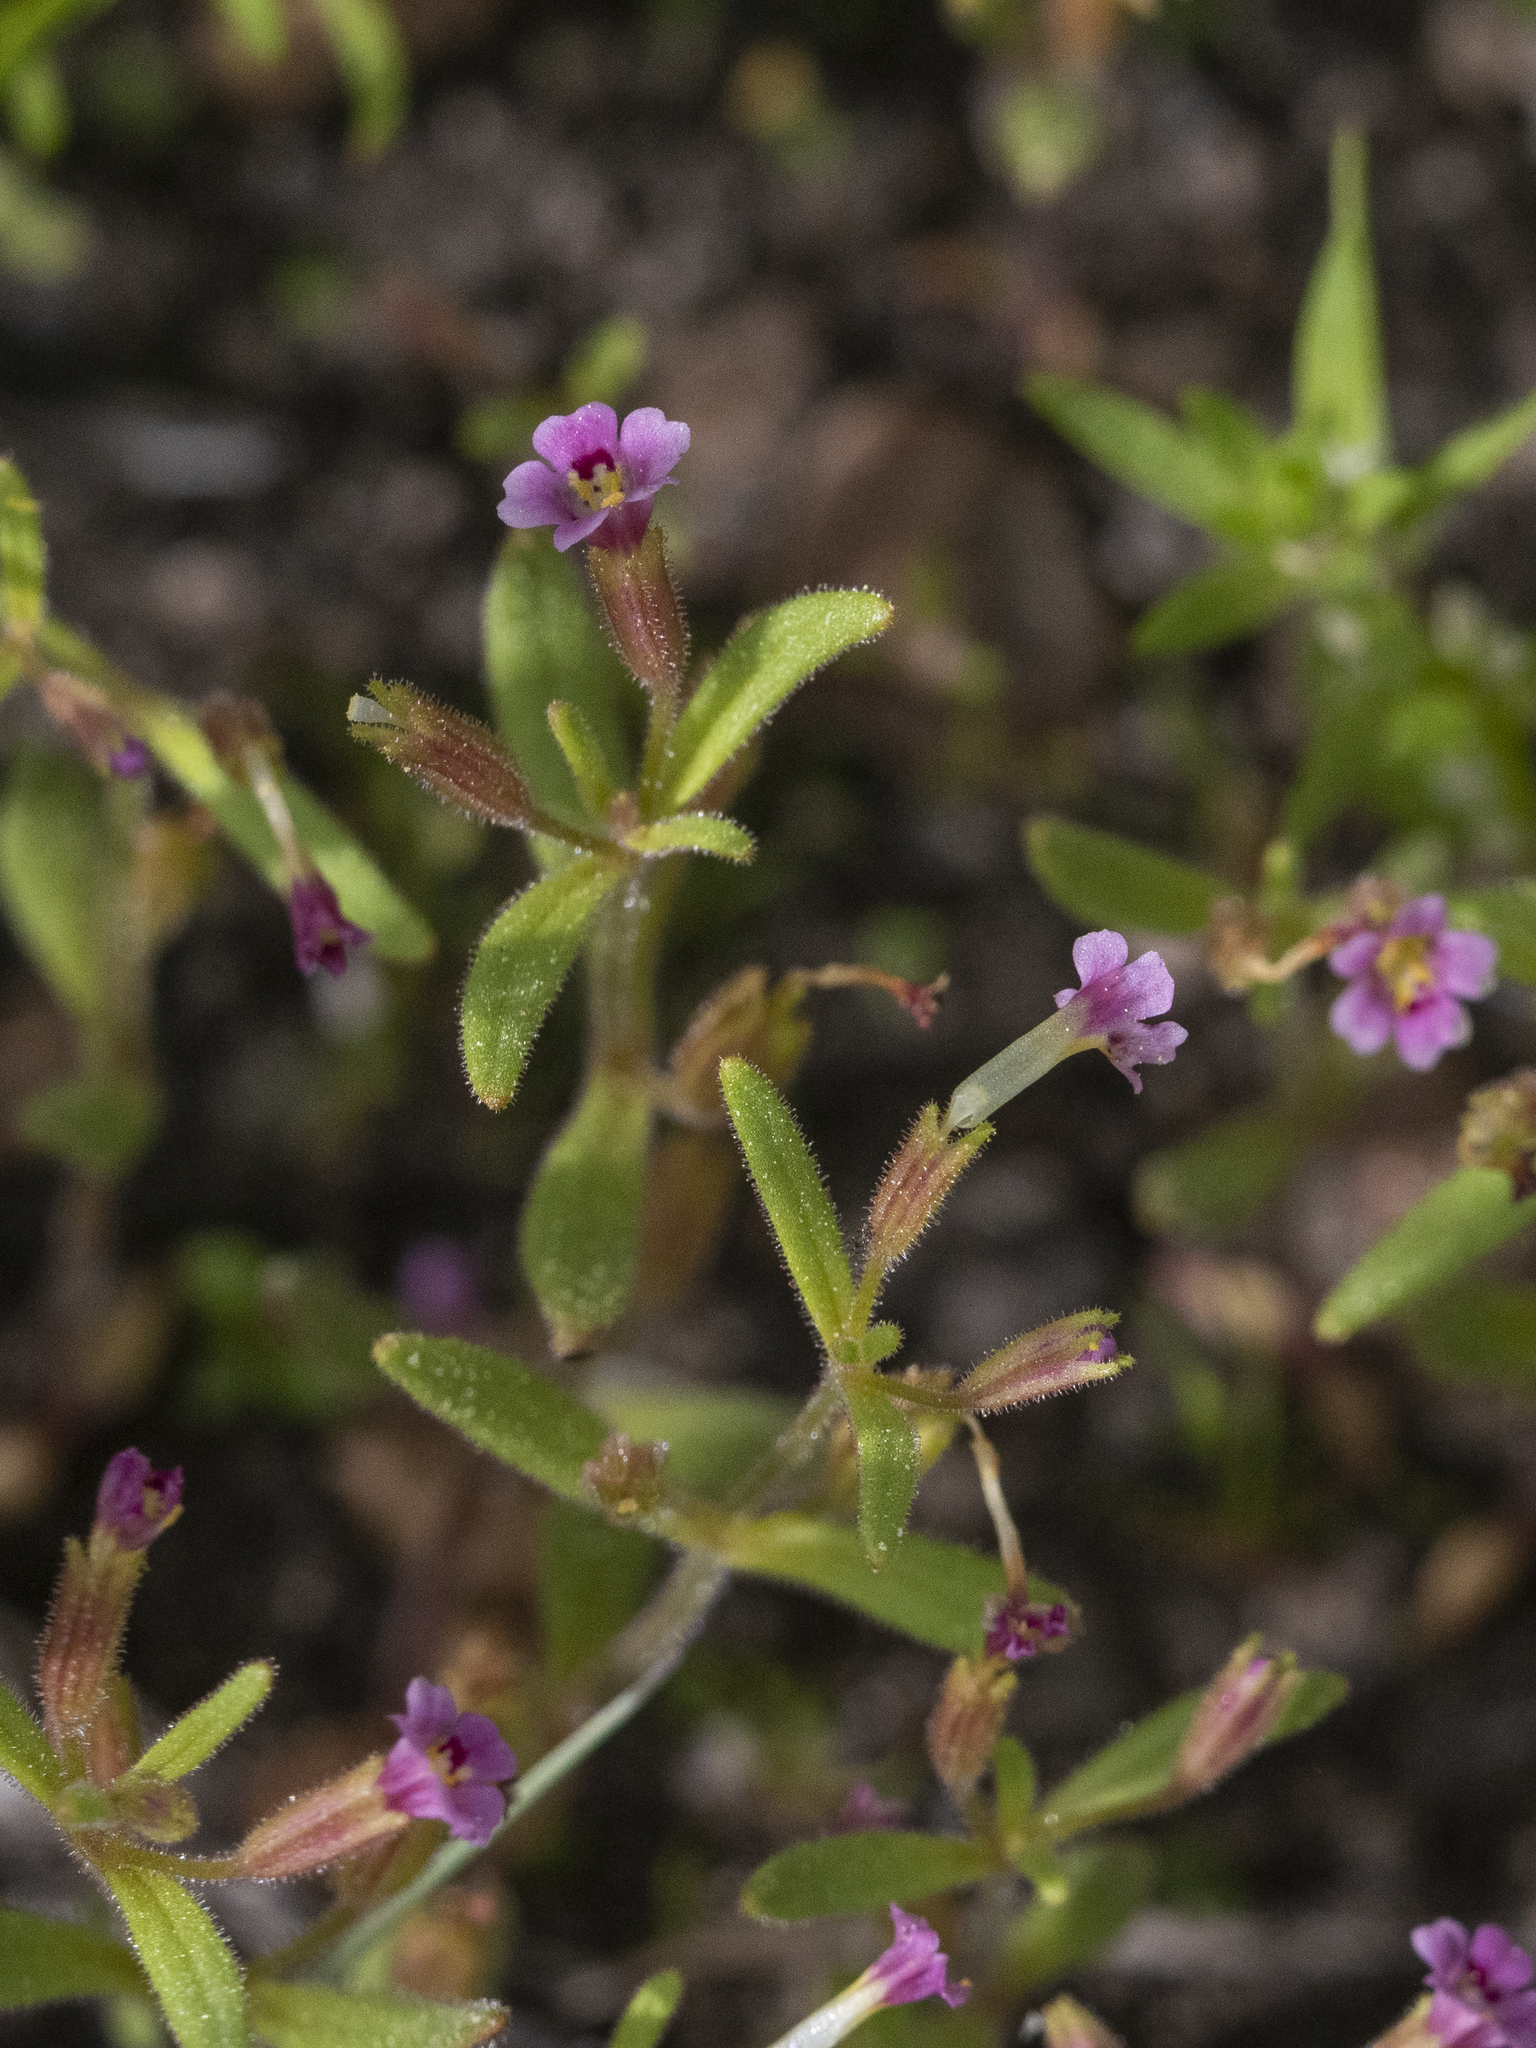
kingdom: Plantae
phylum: Tracheophyta
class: Magnoliopsida
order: Lamiales
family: Phrymaceae
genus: Erythranthe
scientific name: Erythranthe breweri
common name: Brewer's monkeyflower
